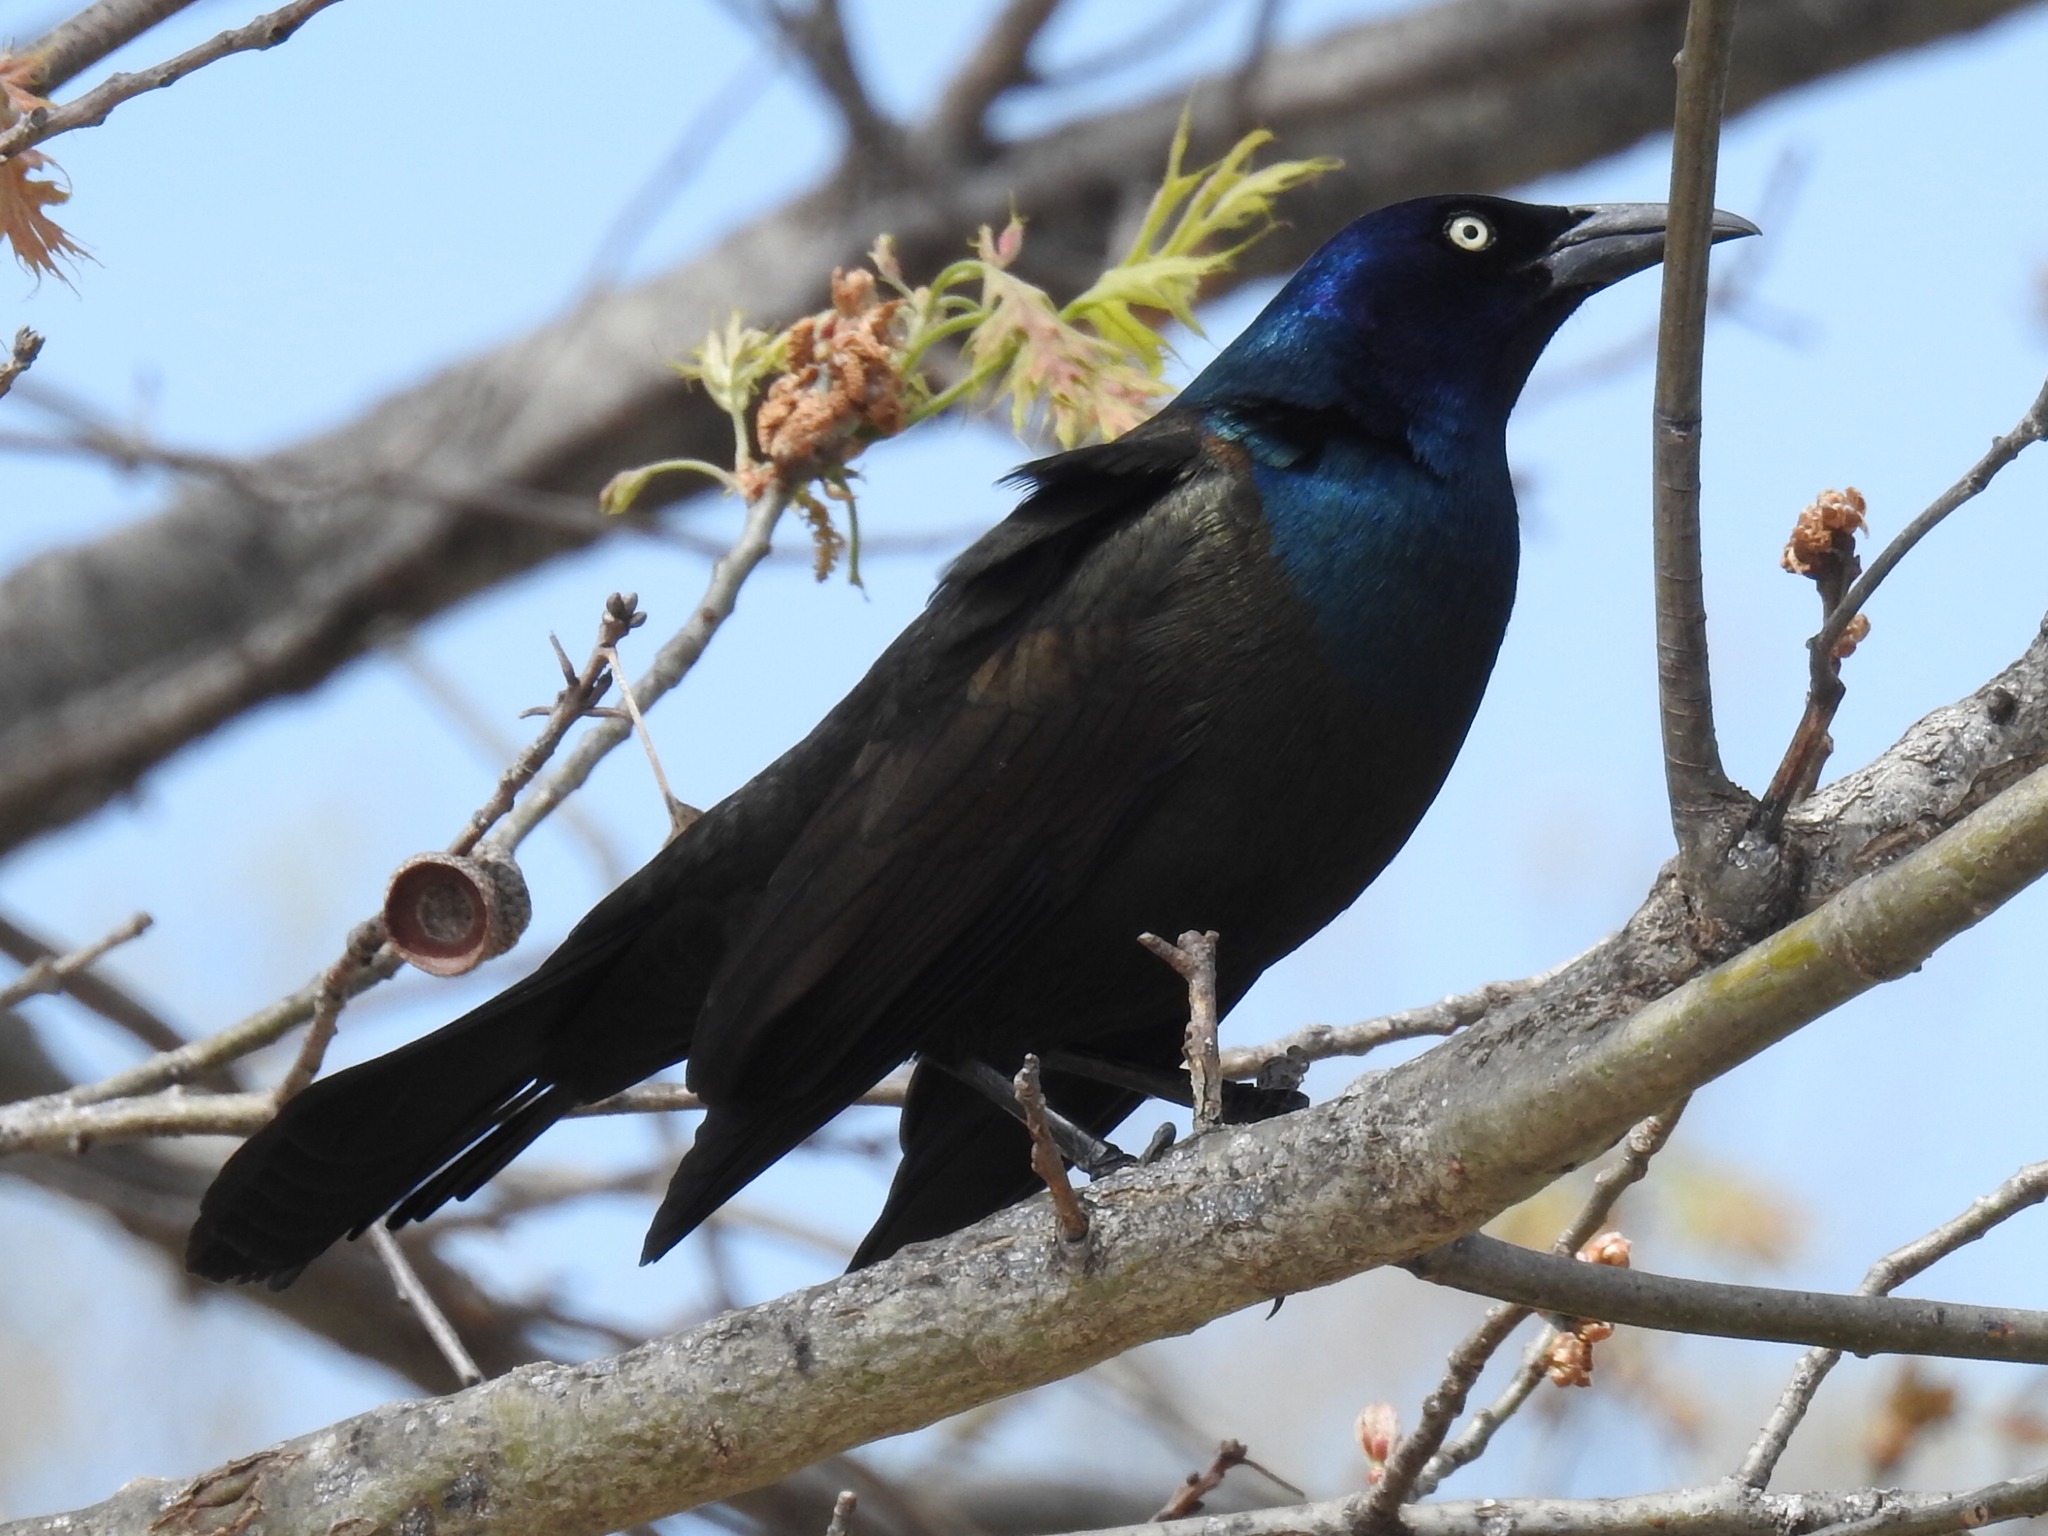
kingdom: Animalia
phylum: Chordata
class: Aves
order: Passeriformes
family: Icteridae
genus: Quiscalus
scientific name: Quiscalus quiscula
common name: Common grackle
